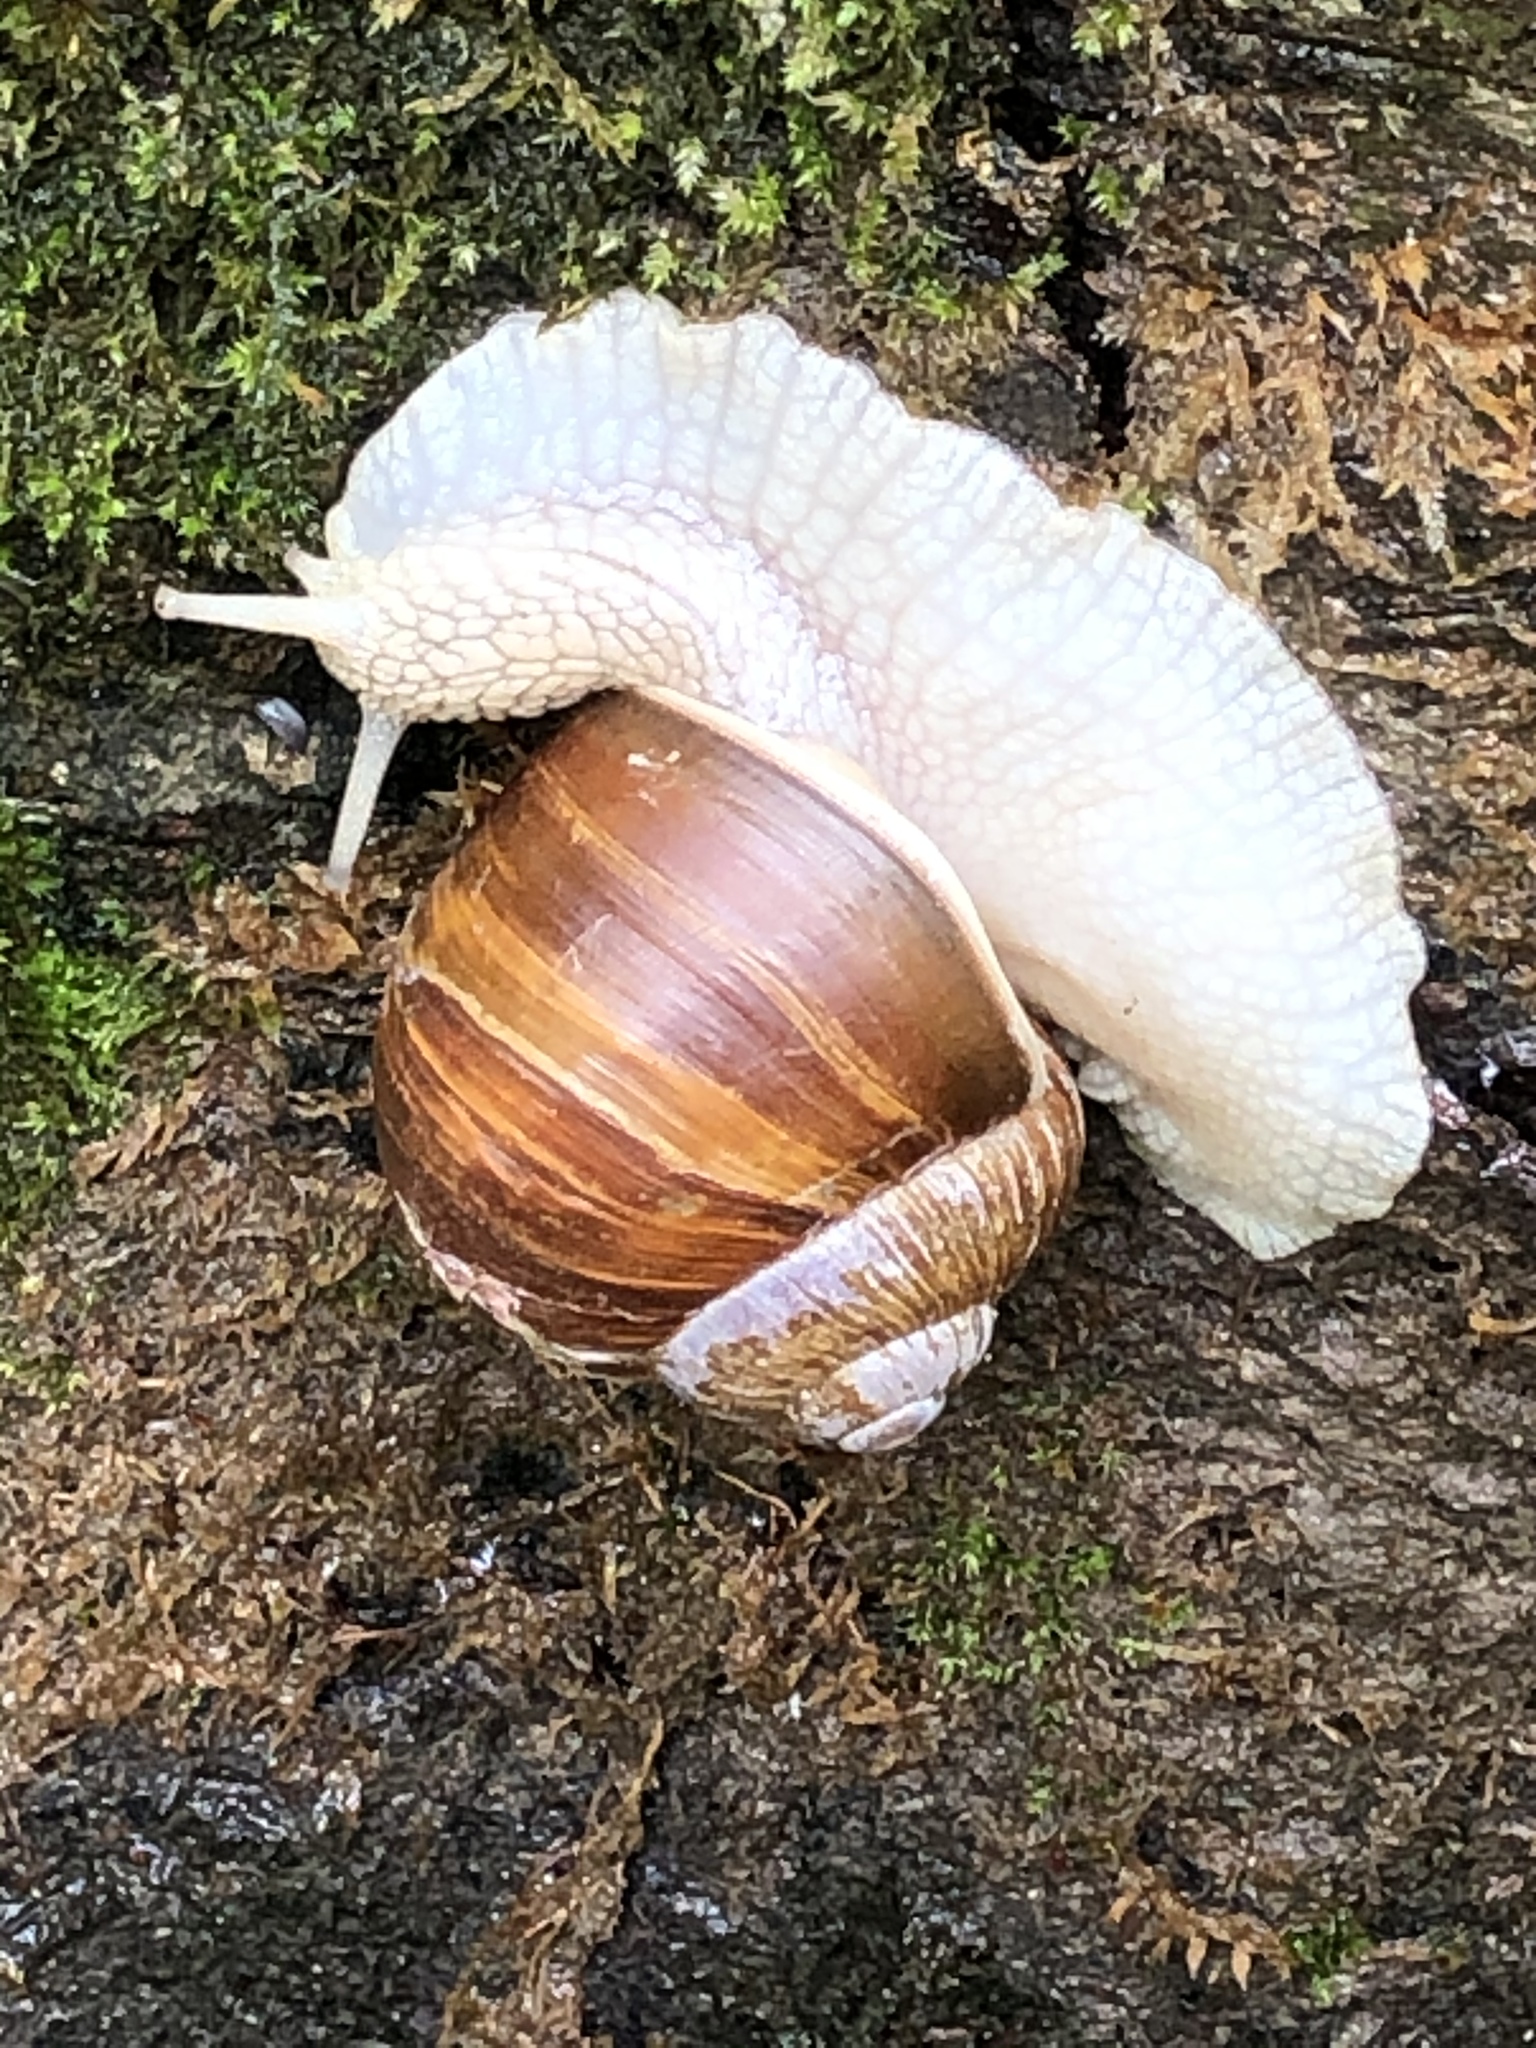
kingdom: Animalia
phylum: Mollusca
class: Gastropoda
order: Stylommatophora
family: Helicidae
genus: Helix
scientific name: Helix pomatia
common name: Roman snail
